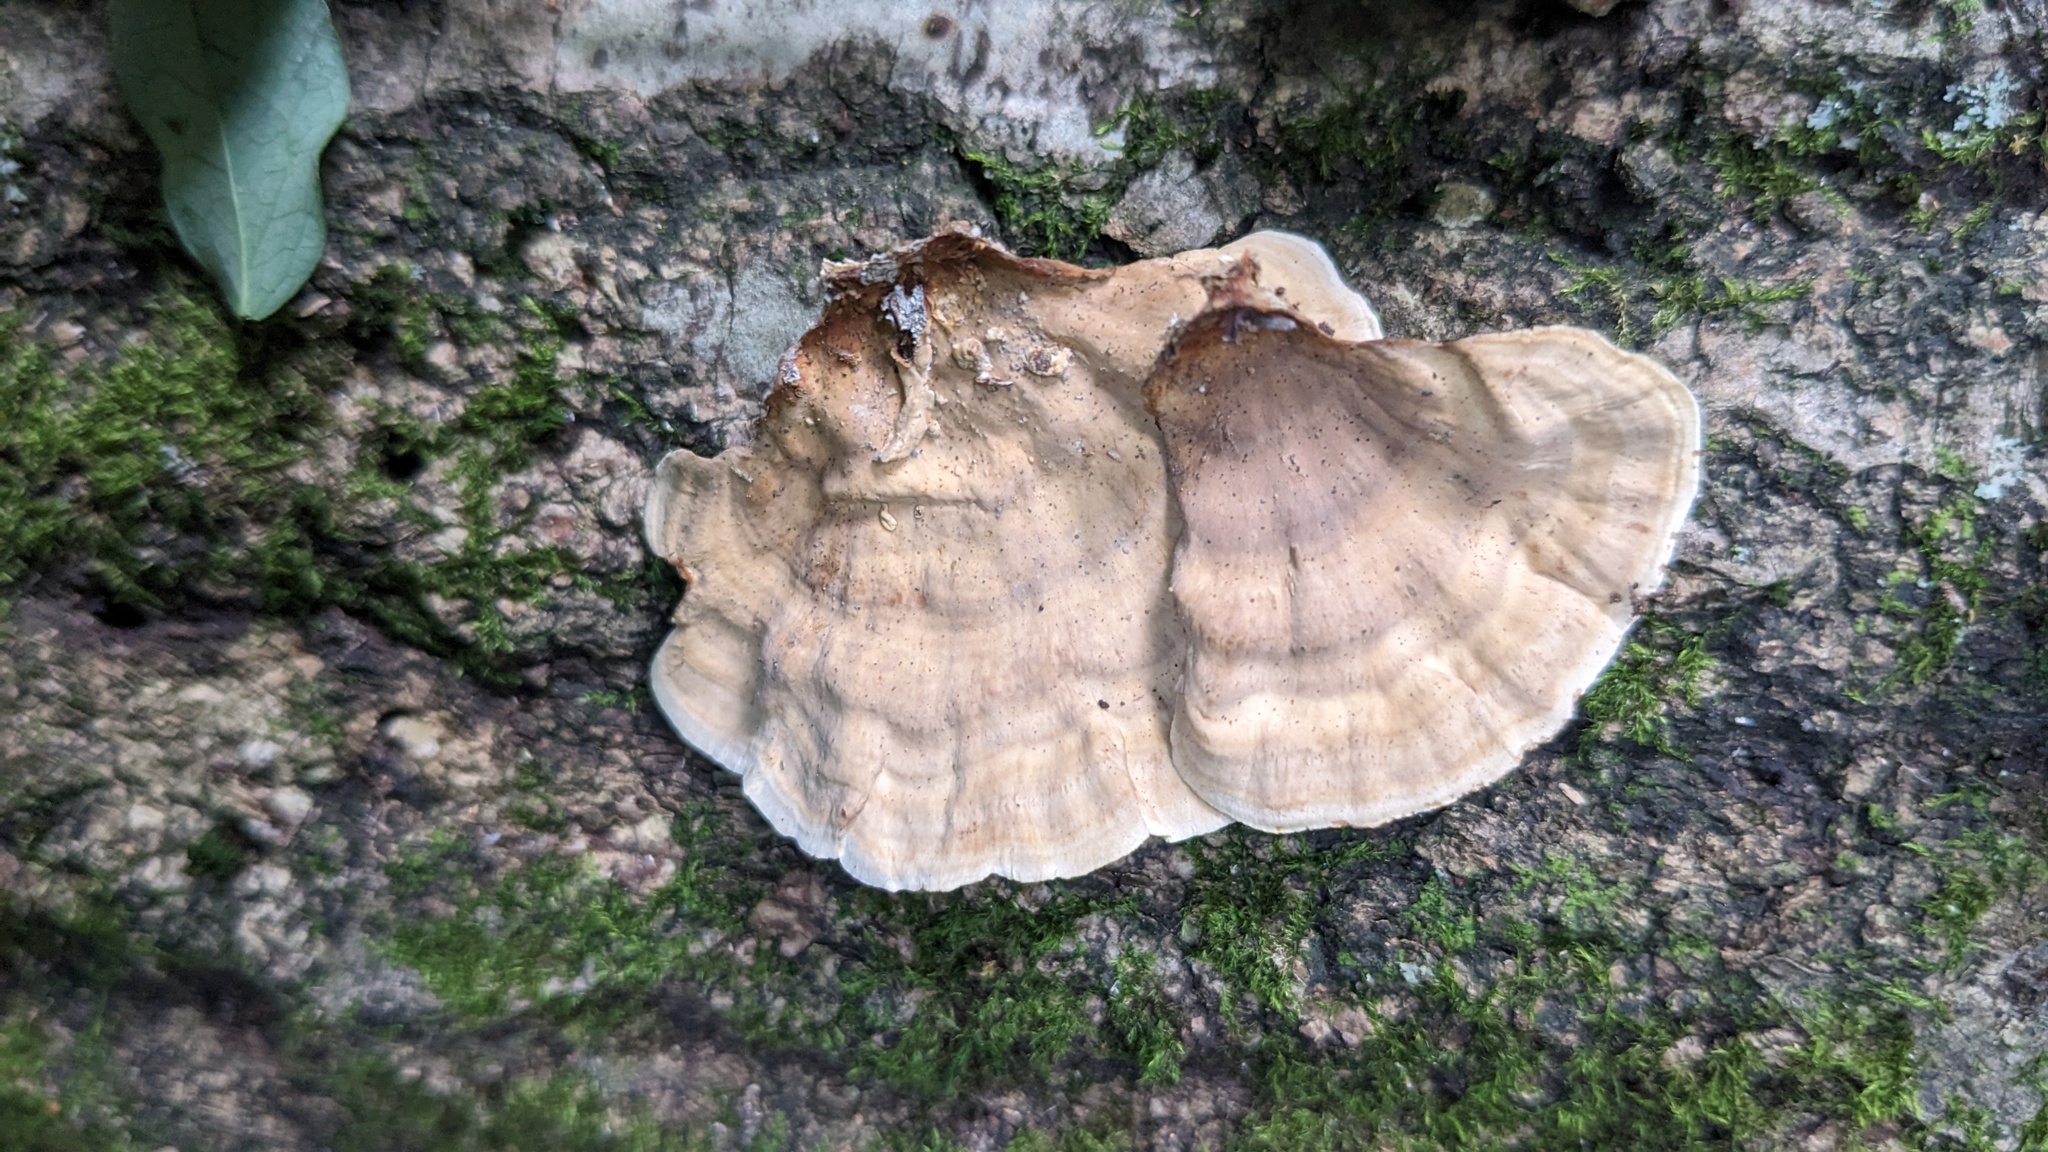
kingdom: Fungi
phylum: Basidiomycota
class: Agaricomycetes
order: Russulales
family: Stereaceae
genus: Stereum
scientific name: Stereum ostrea
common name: False turkeytail
